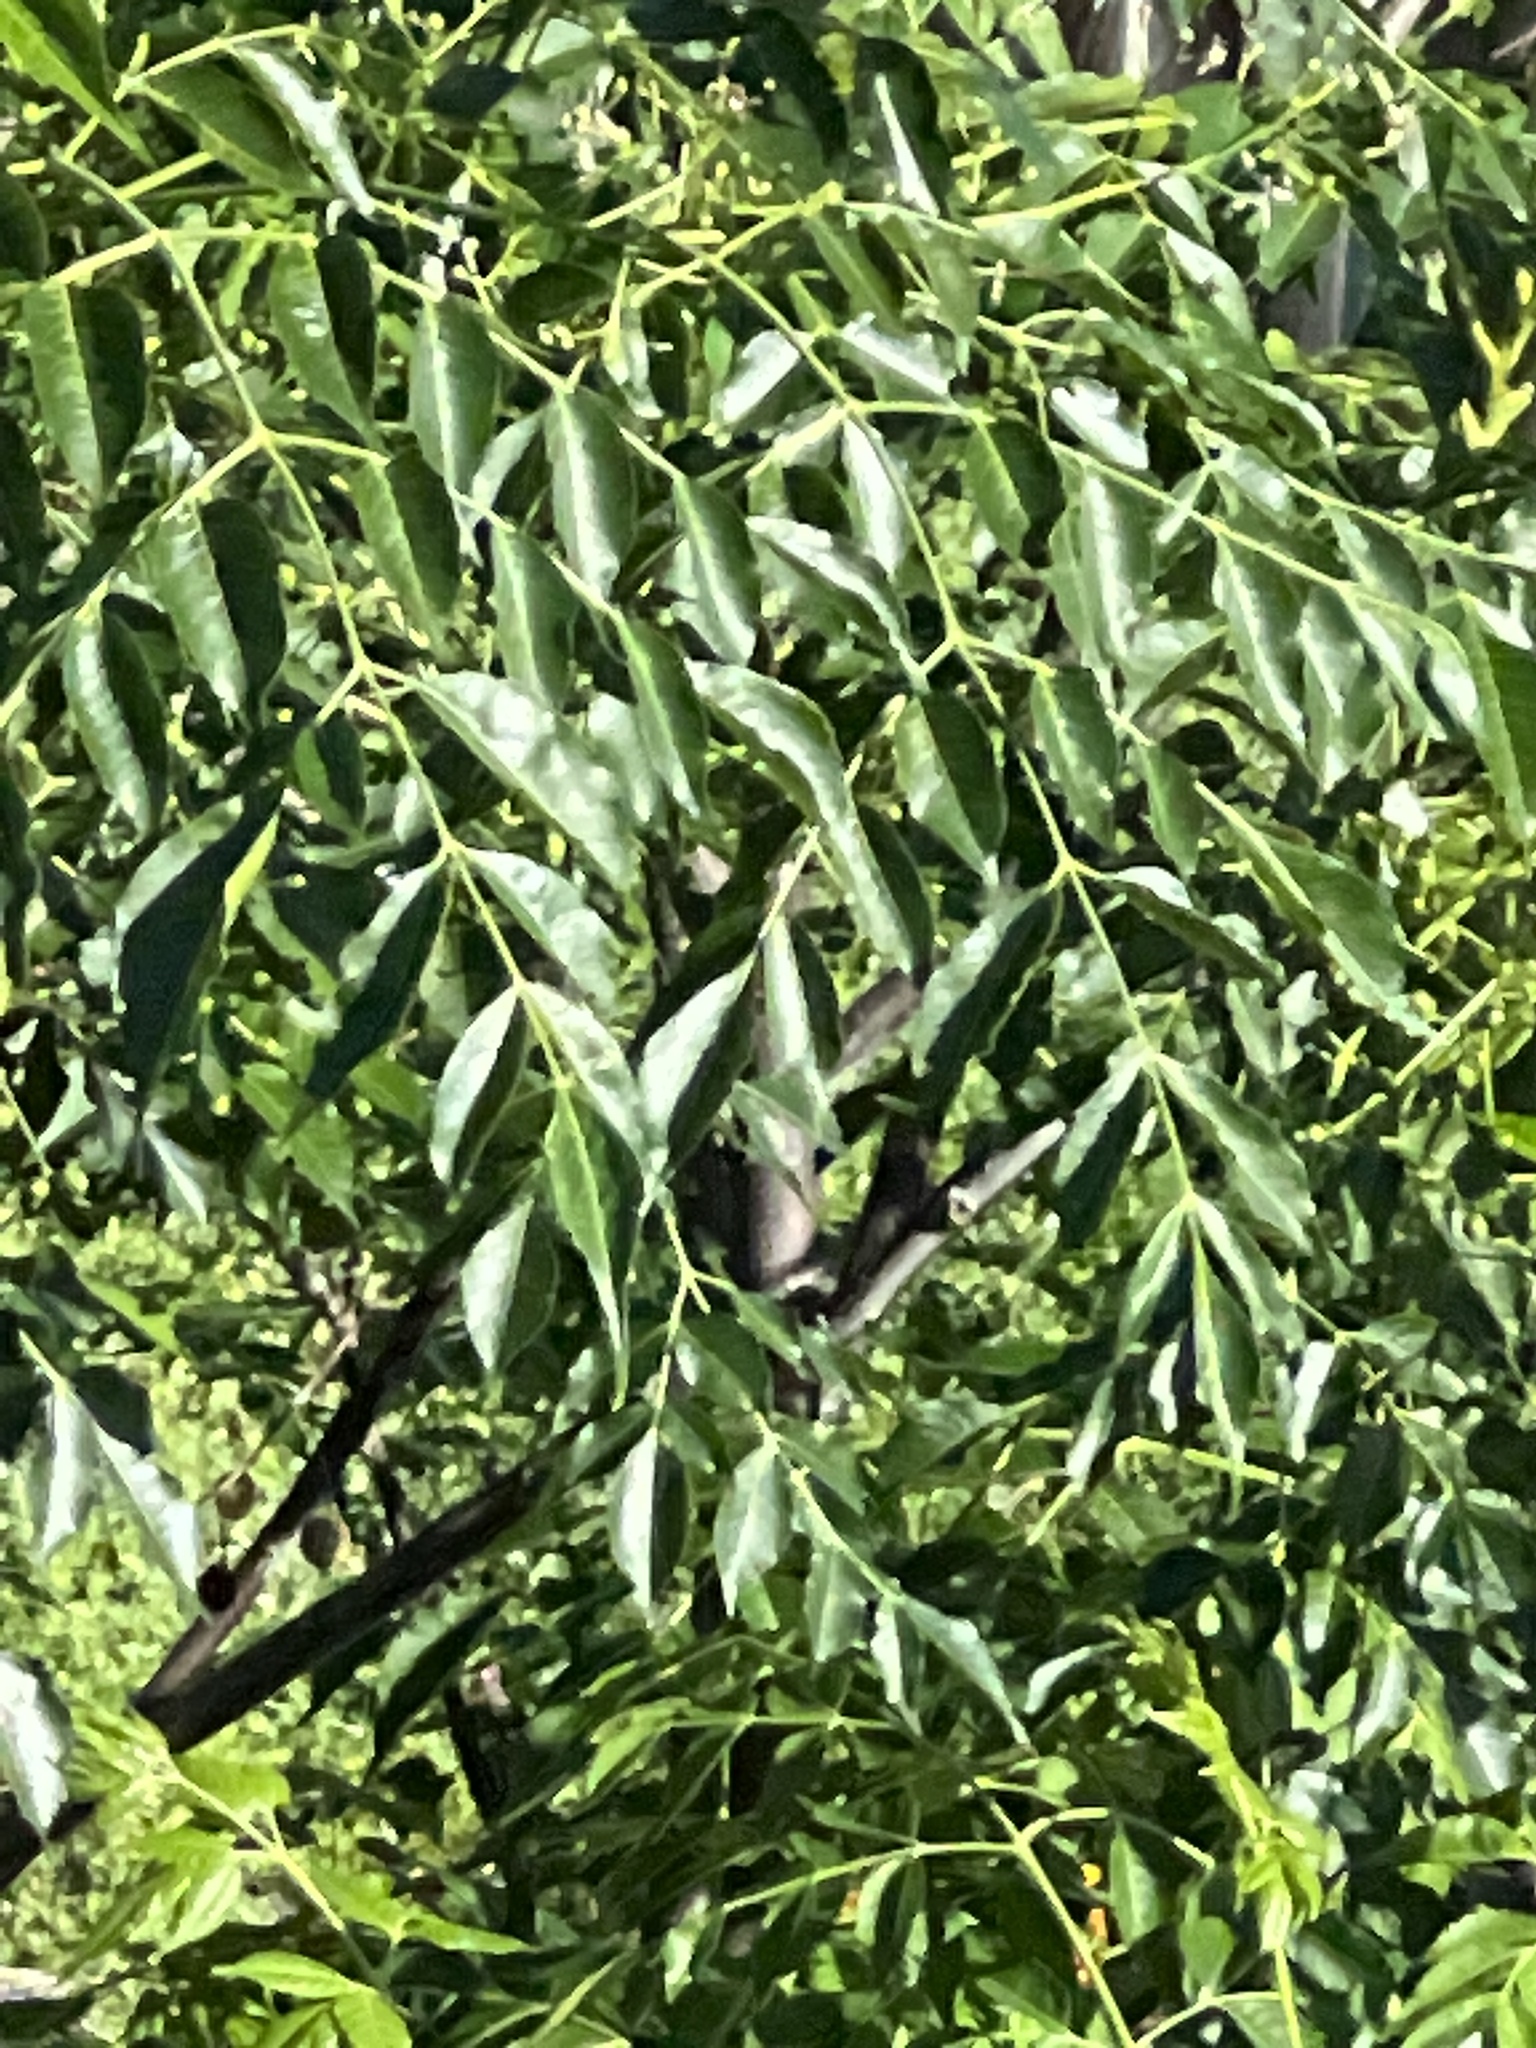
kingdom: Plantae
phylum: Tracheophyta
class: Magnoliopsida
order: Sapindales
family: Meliaceae
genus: Melia
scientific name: Melia azedarach
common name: Chinaberrytree
